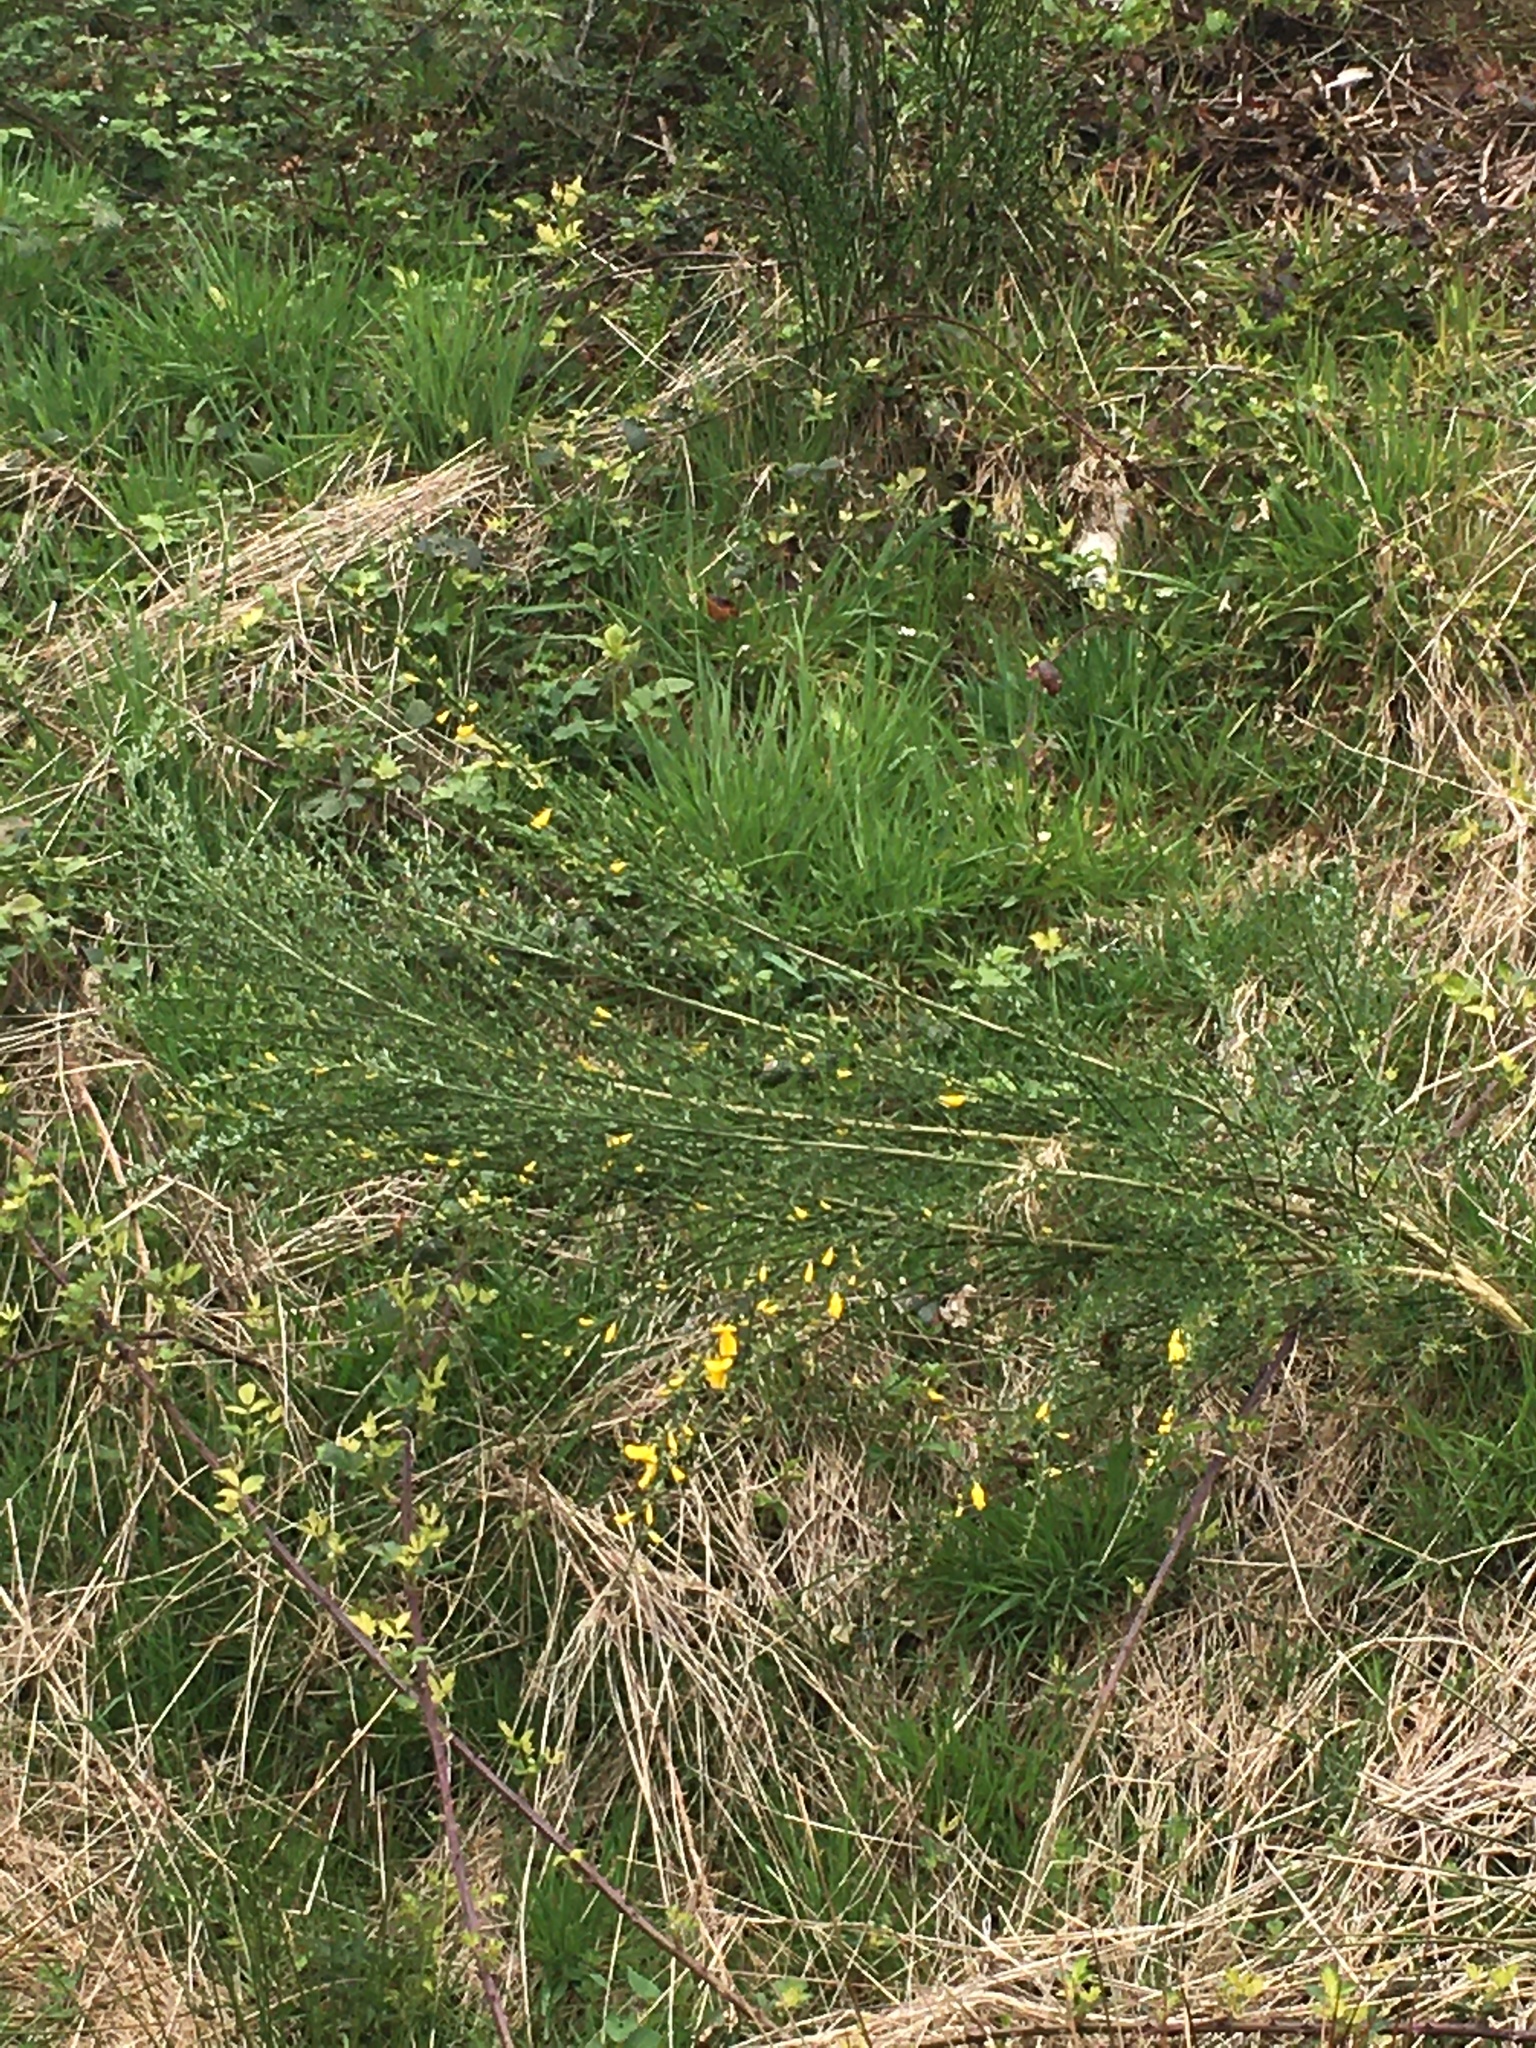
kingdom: Plantae
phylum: Tracheophyta
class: Magnoliopsida
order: Fabales
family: Fabaceae
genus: Cytisus
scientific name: Cytisus scoparius
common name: Scotch broom
